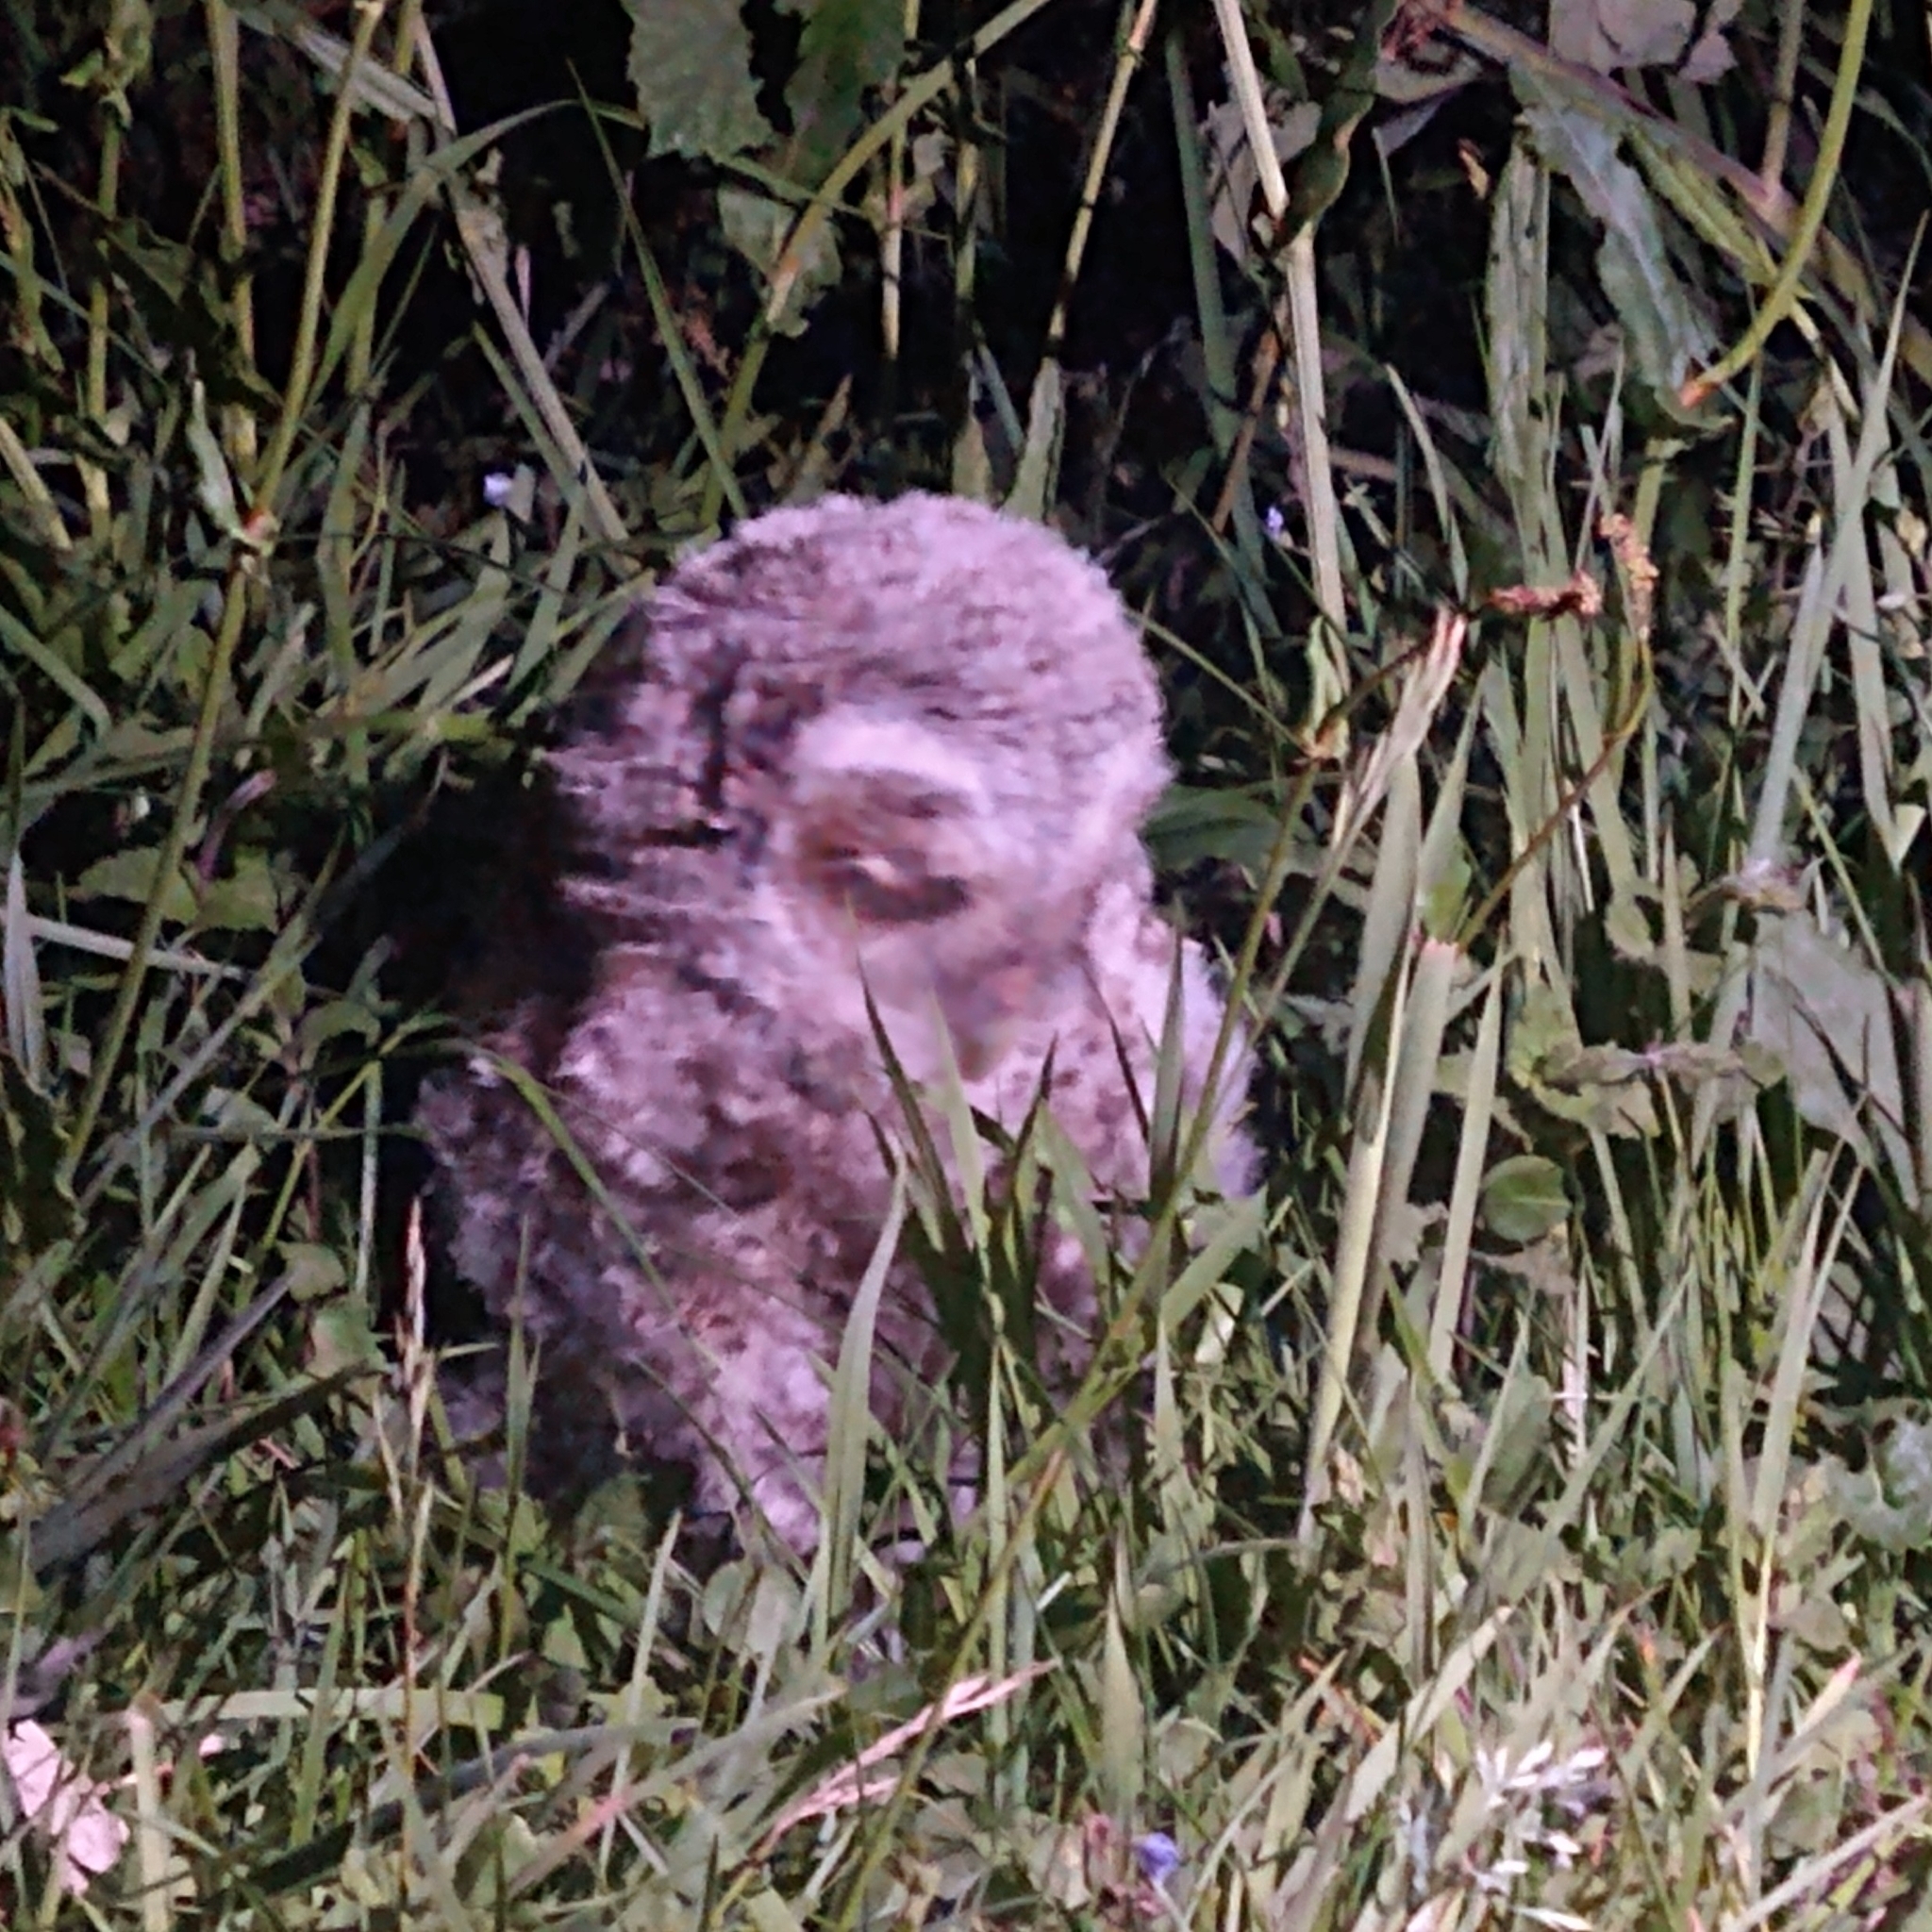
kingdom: Animalia
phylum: Chordata
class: Aves
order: Strigiformes
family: Strigidae
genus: Strix
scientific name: Strix aluco
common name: Tawny owl
